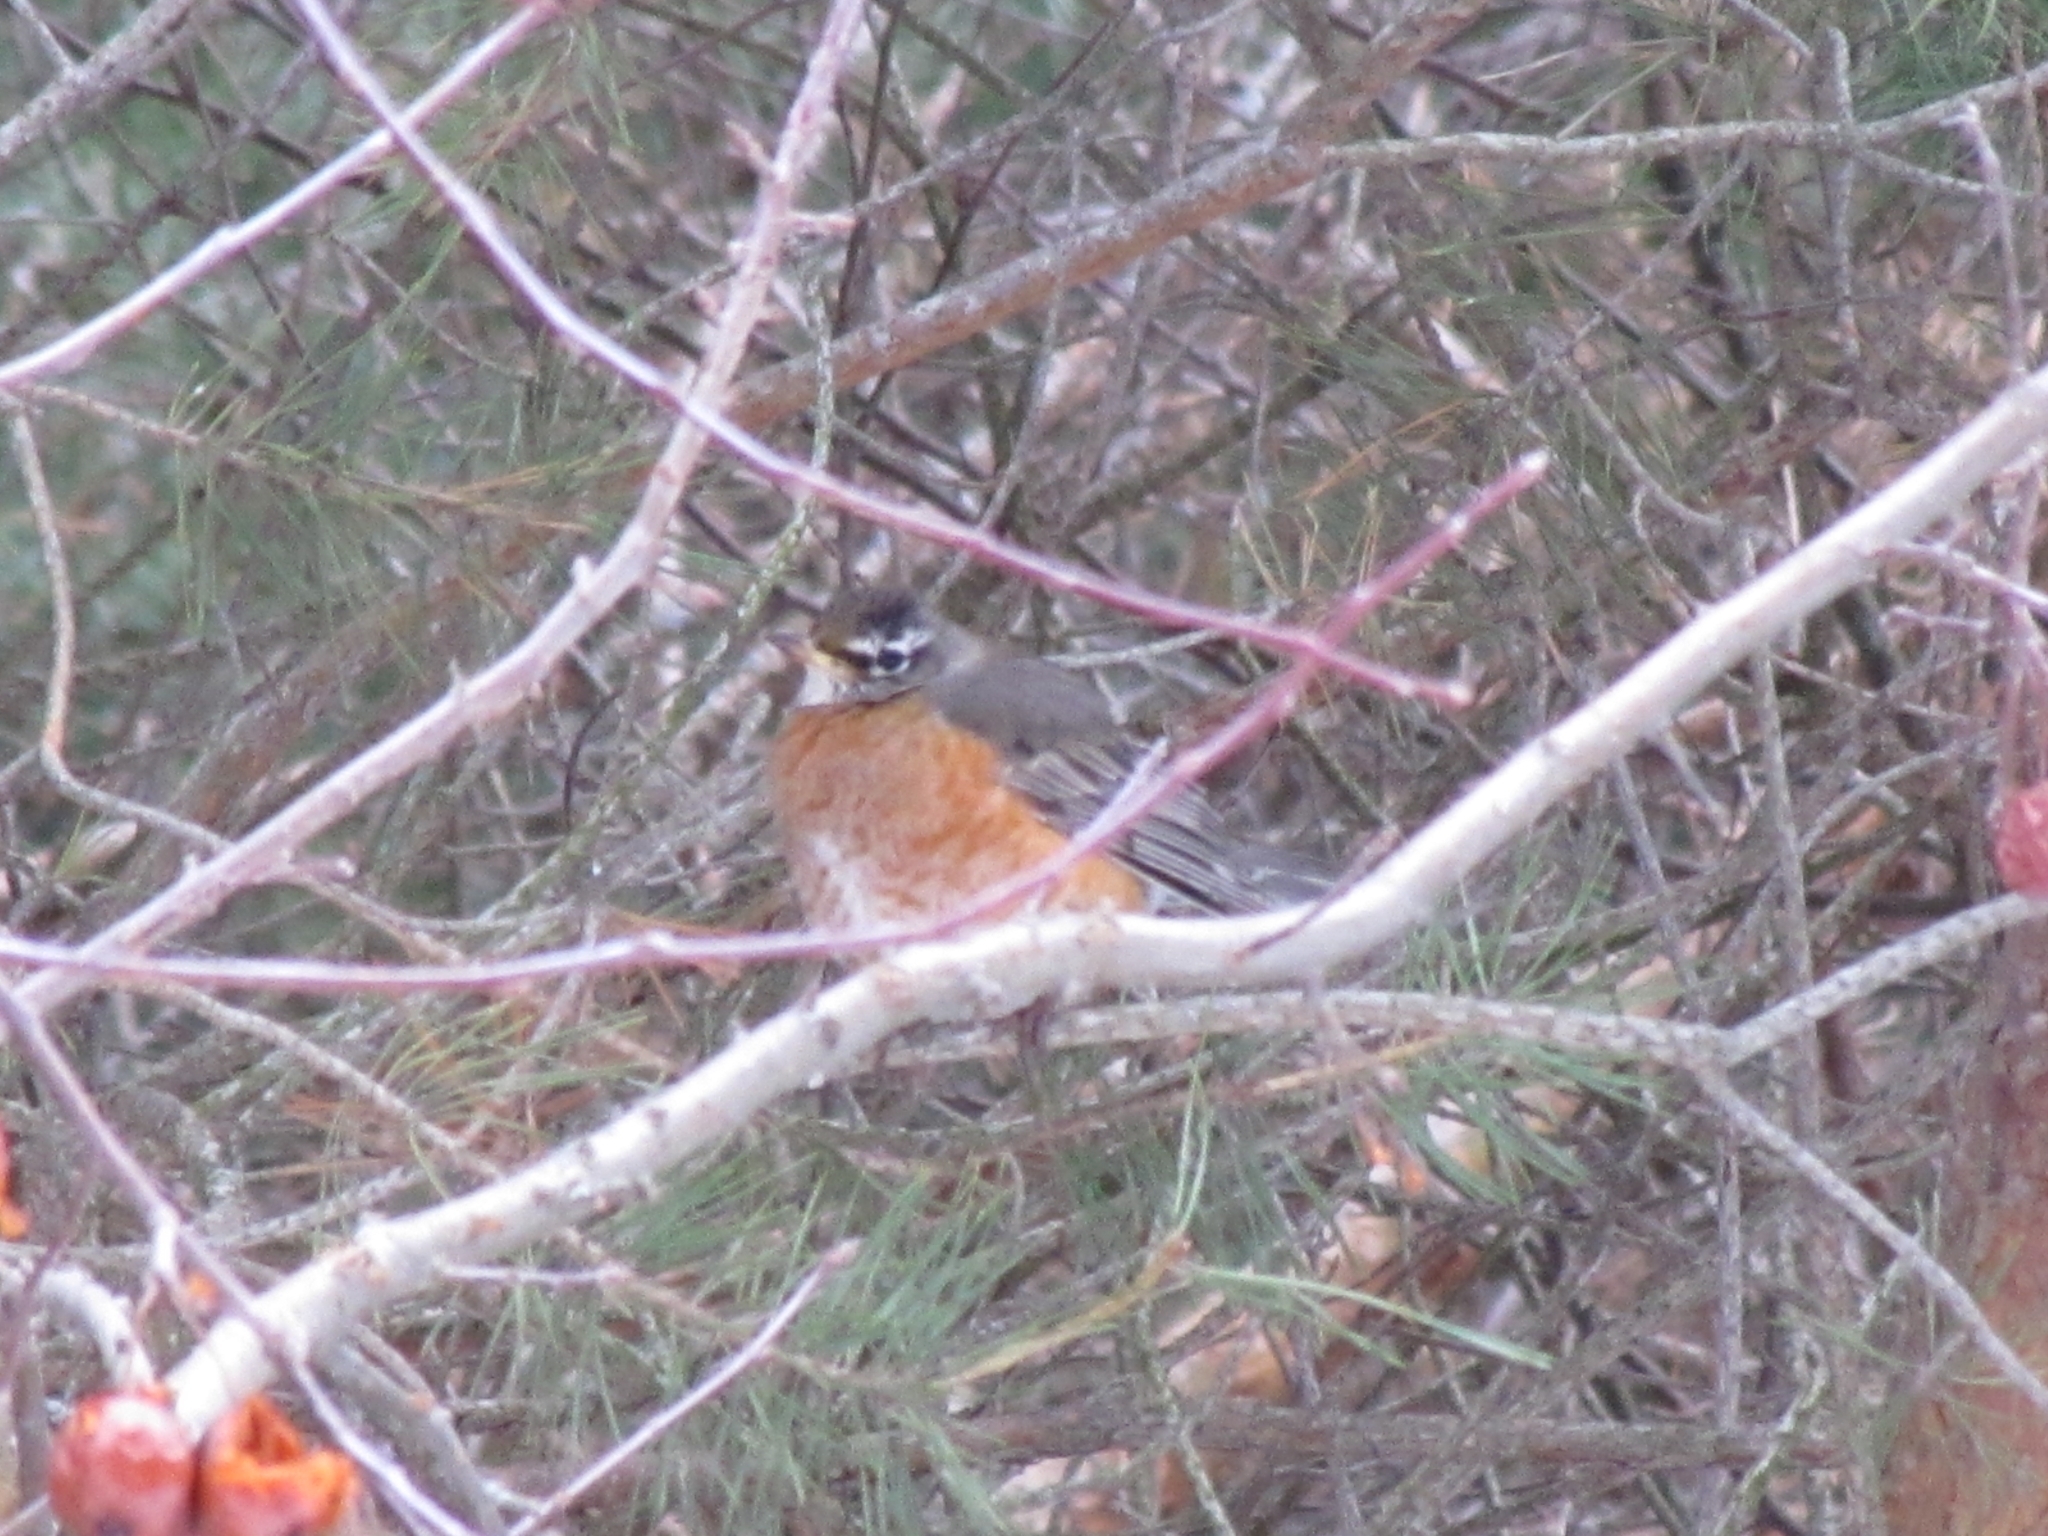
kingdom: Animalia
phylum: Chordata
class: Aves
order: Passeriformes
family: Turdidae
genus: Turdus
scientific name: Turdus migratorius
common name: American robin
